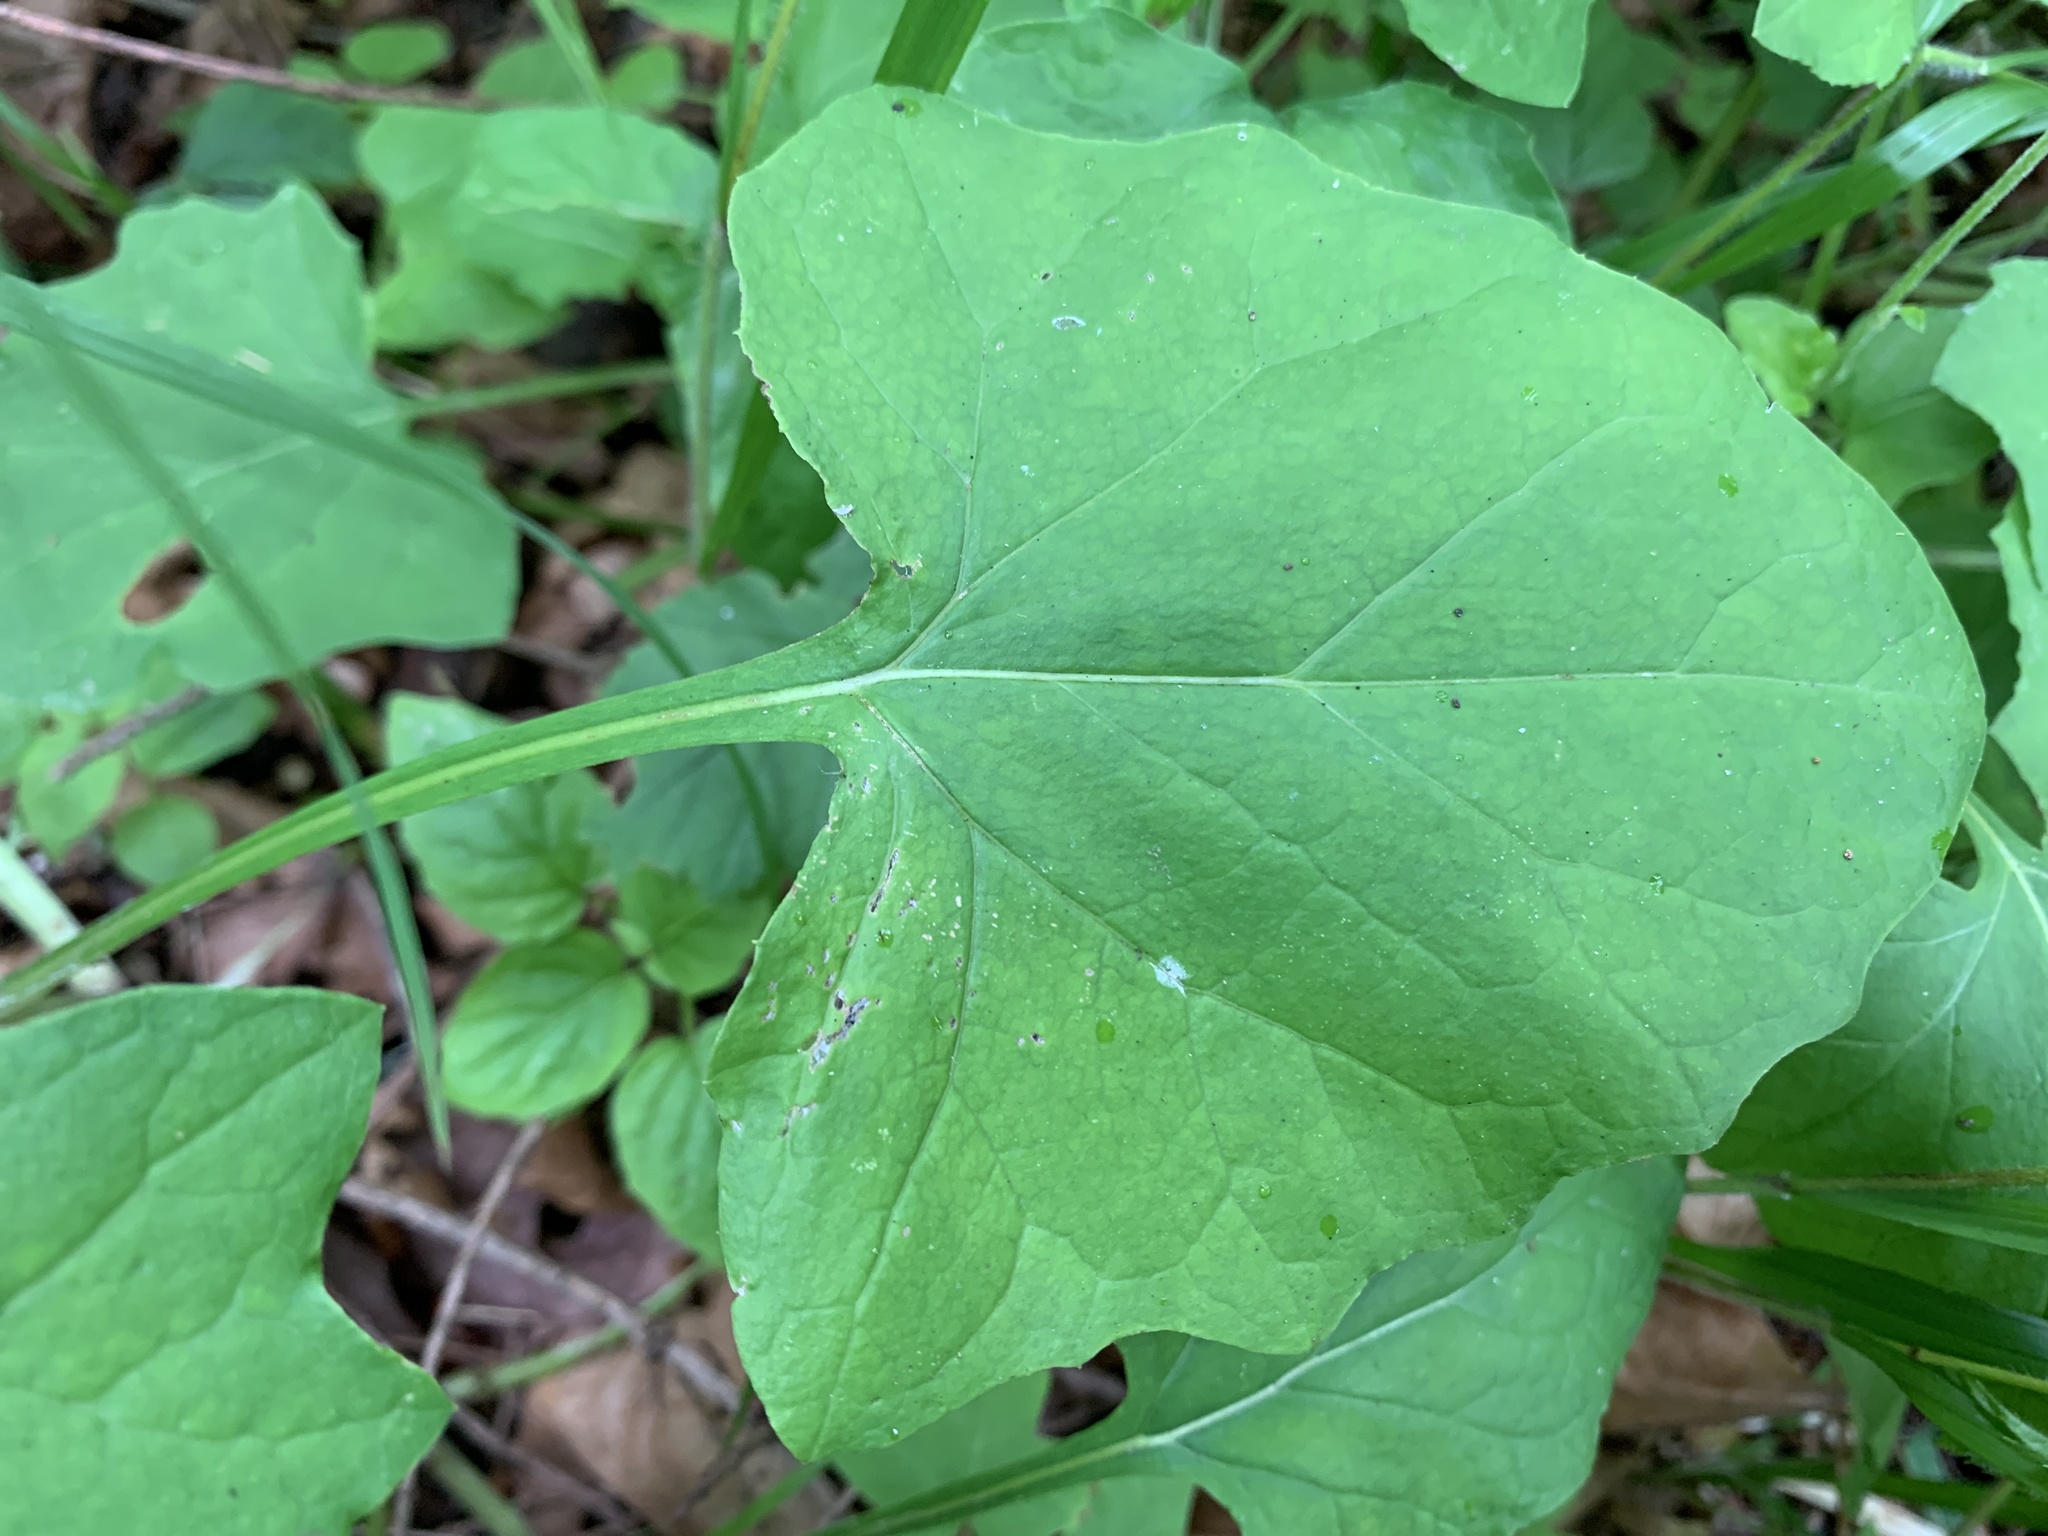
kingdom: Plantae
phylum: Tracheophyta
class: Magnoliopsida
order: Asterales
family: Asteraceae
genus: Adenocaulon
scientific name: Adenocaulon bicolor
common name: Trailplant
